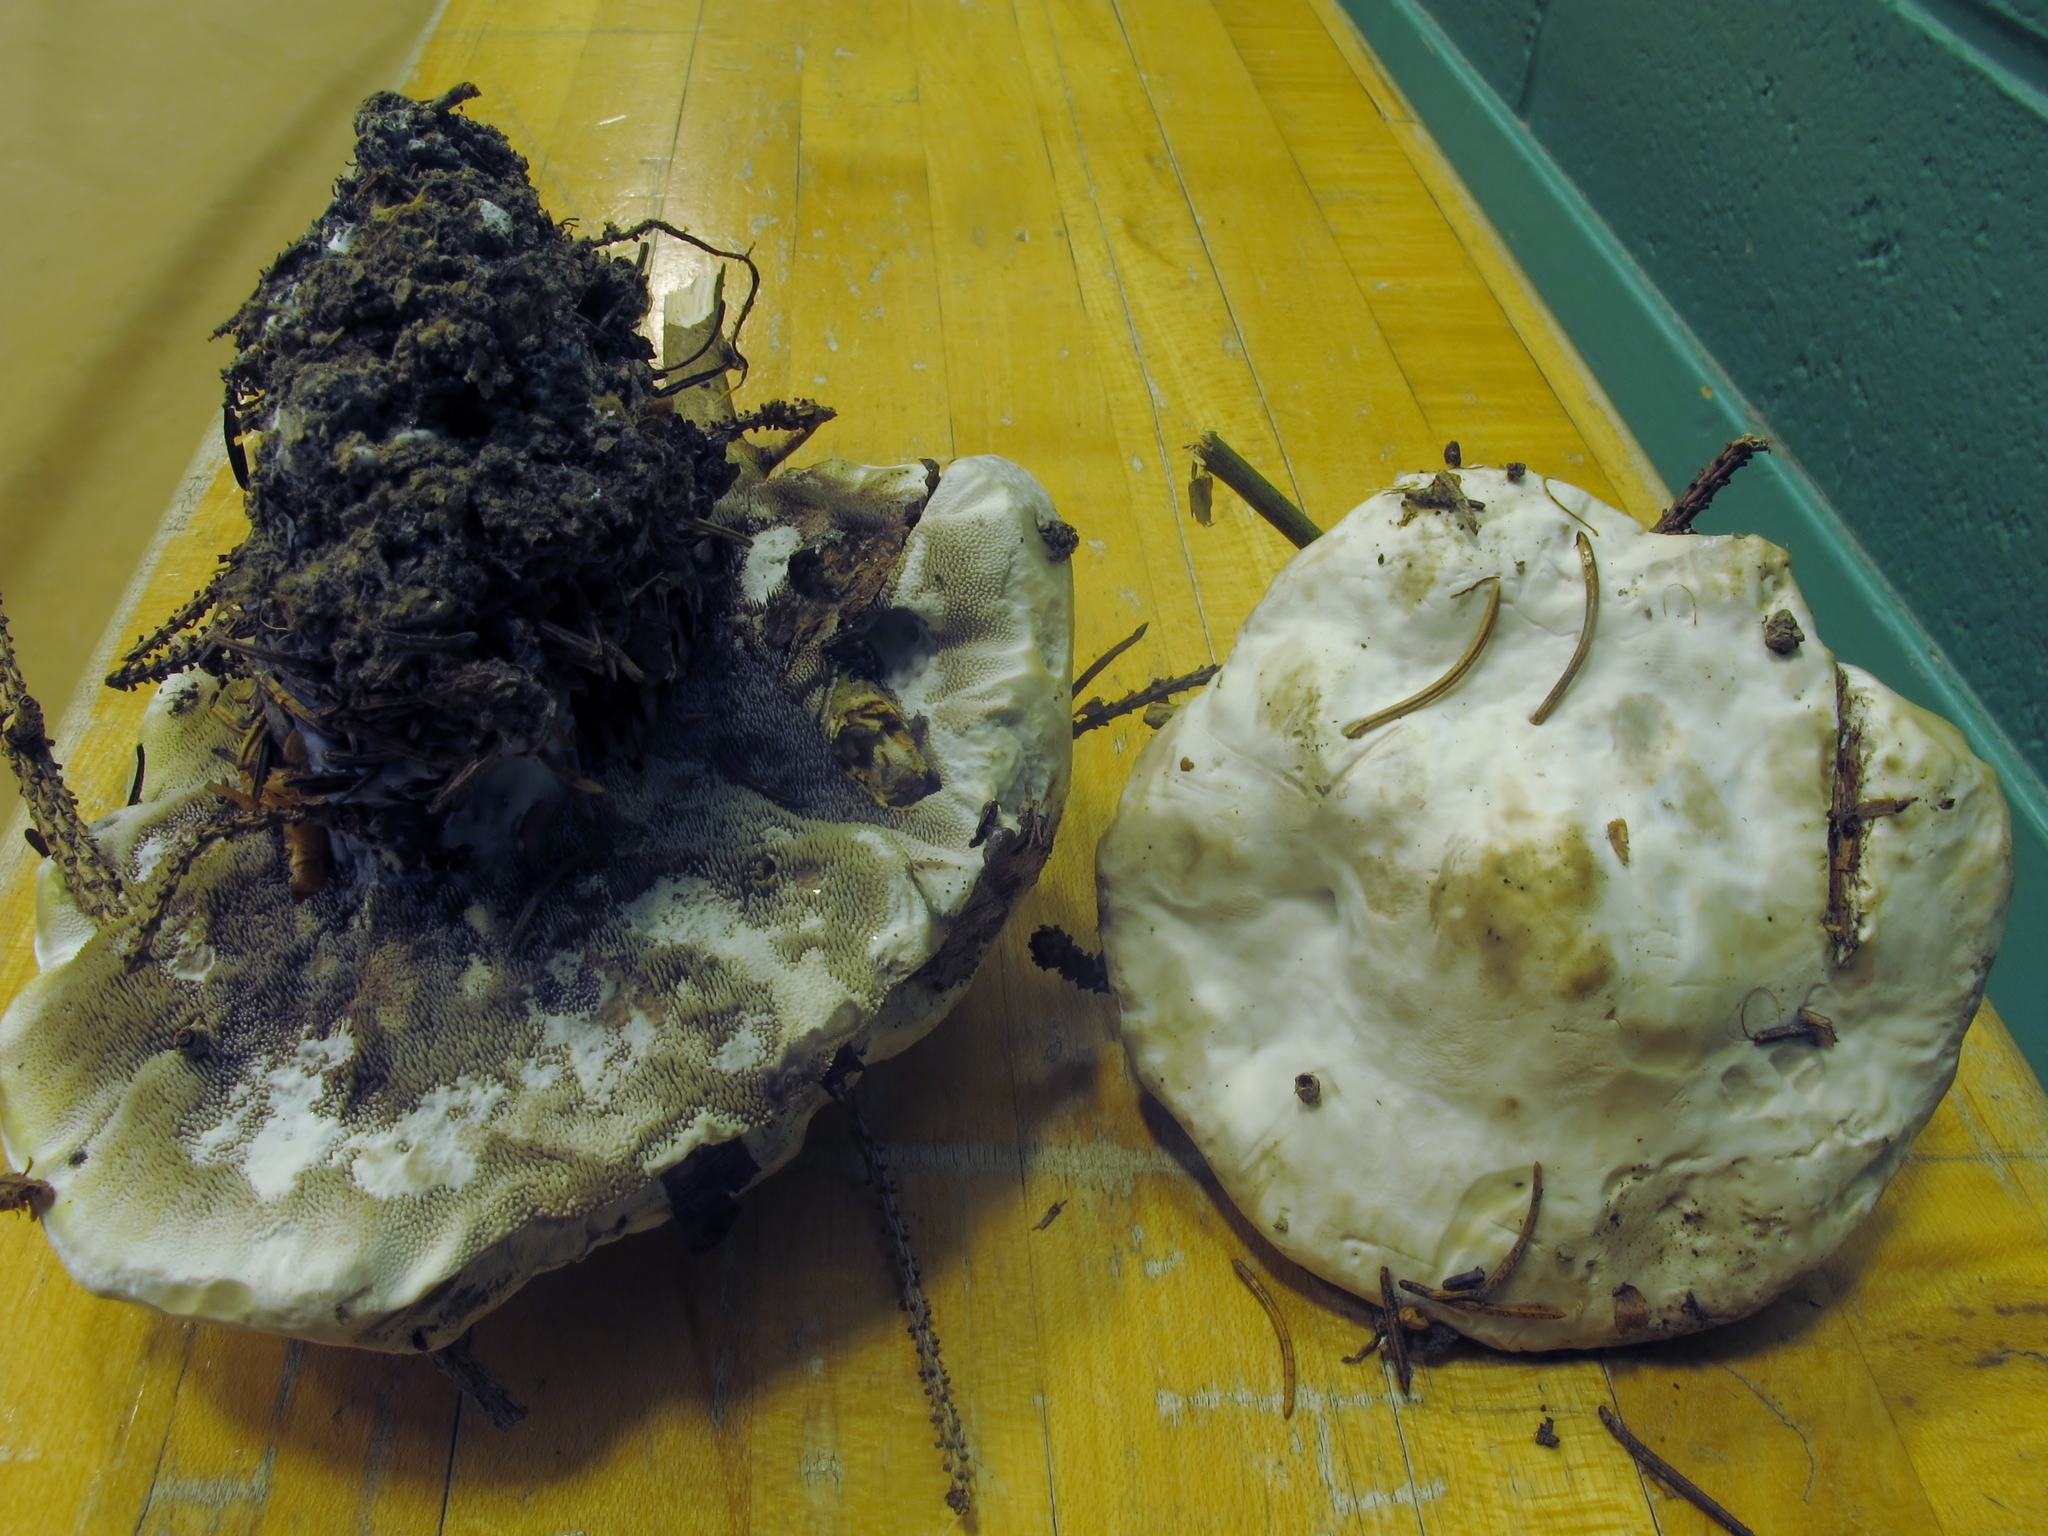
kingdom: Fungi
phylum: Basidiomycota
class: Agaricomycetes
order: Thelephorales
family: Bankeraceae
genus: Hydnellum
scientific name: Hydnellum suaveolens
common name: Sweetgrass hydnellum
